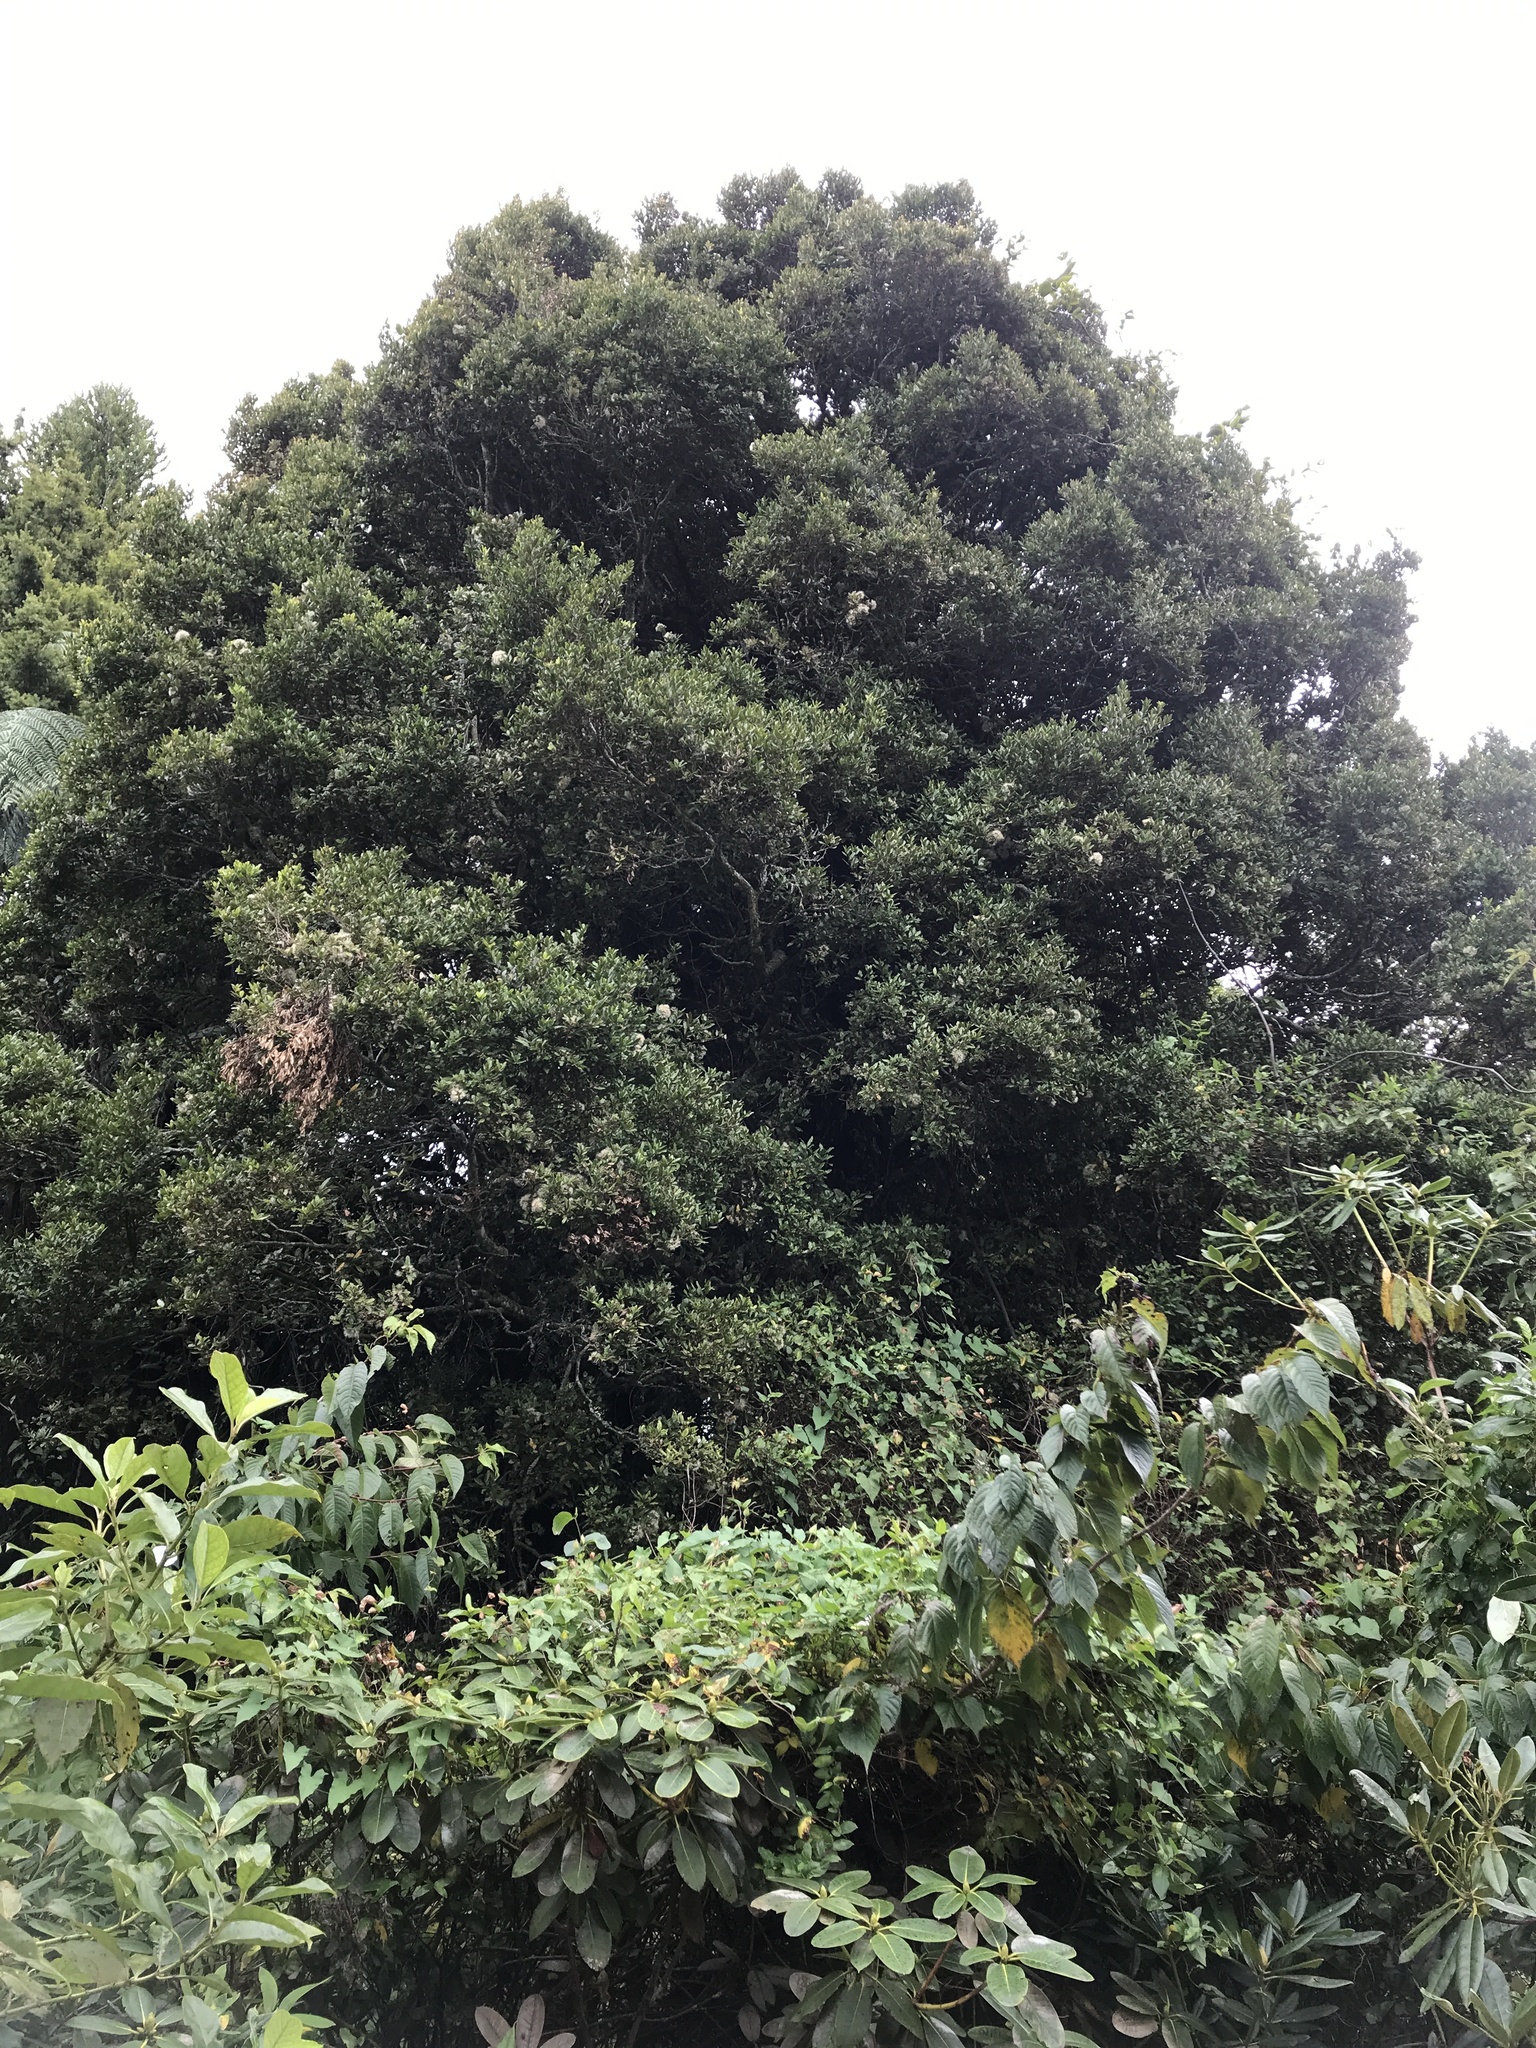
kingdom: Plantae
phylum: Tracheophyta
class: Magnoliopsida
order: Myrtales
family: Myrtaceae
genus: Syzygium
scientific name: Syzygium maire
